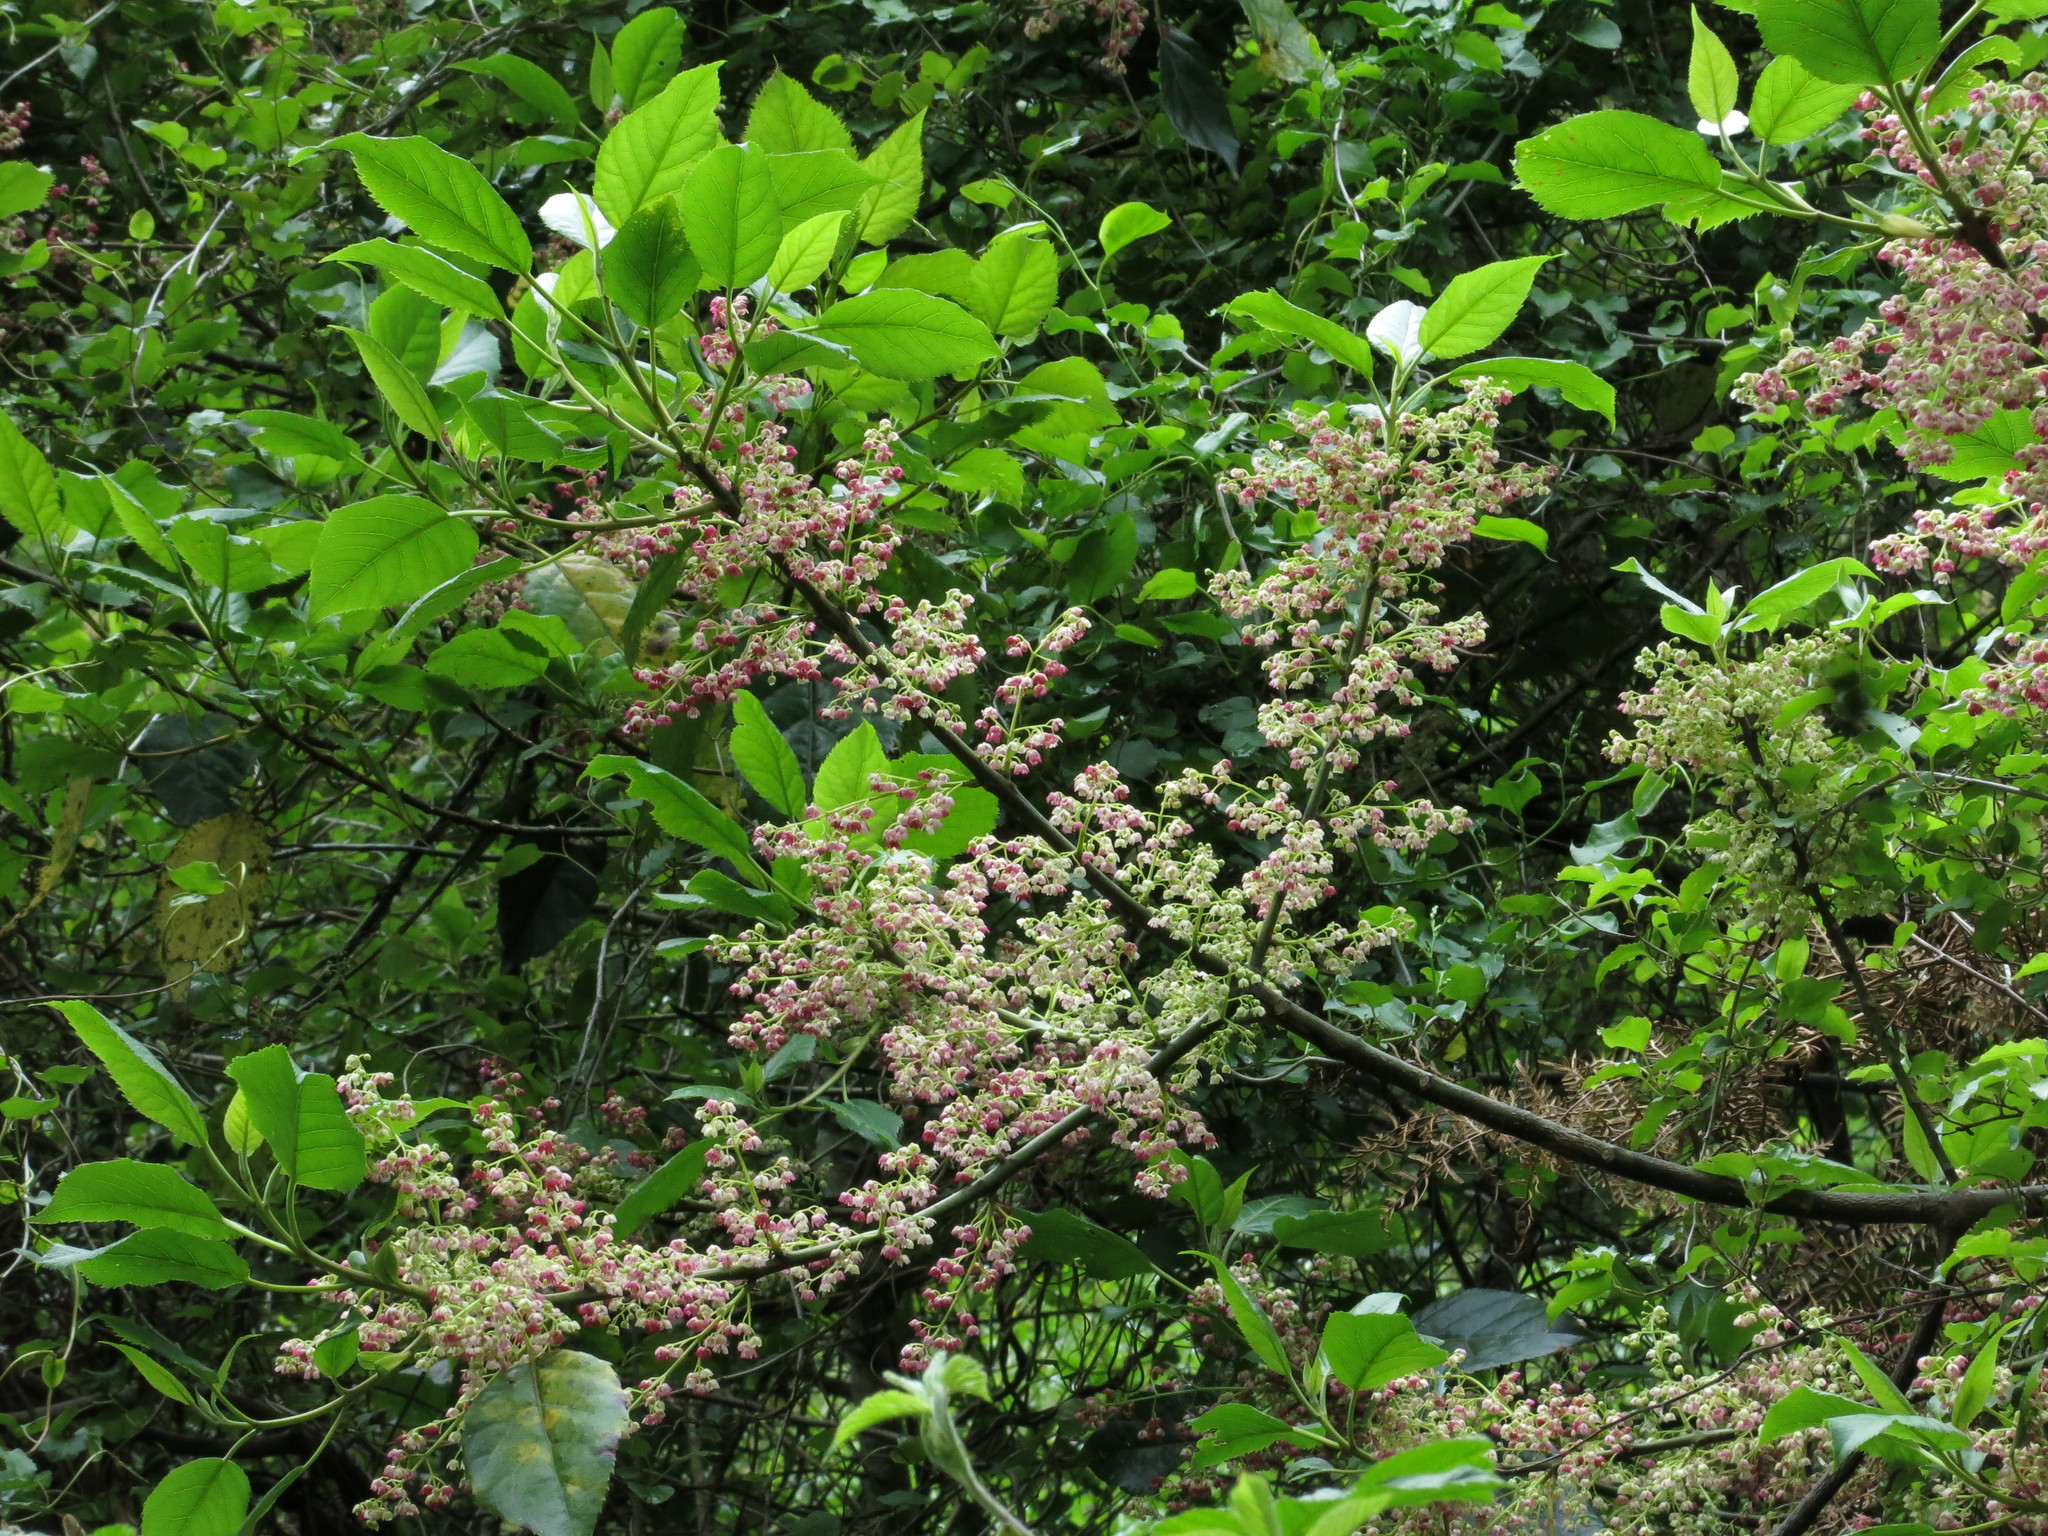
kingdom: Plantae
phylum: Tracheophyta
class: Magnoliopsida
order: Oxalidales
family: Elaeocarpaceae
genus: Aristotelia
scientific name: Aristotelia serrata
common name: New zealand wineberry
